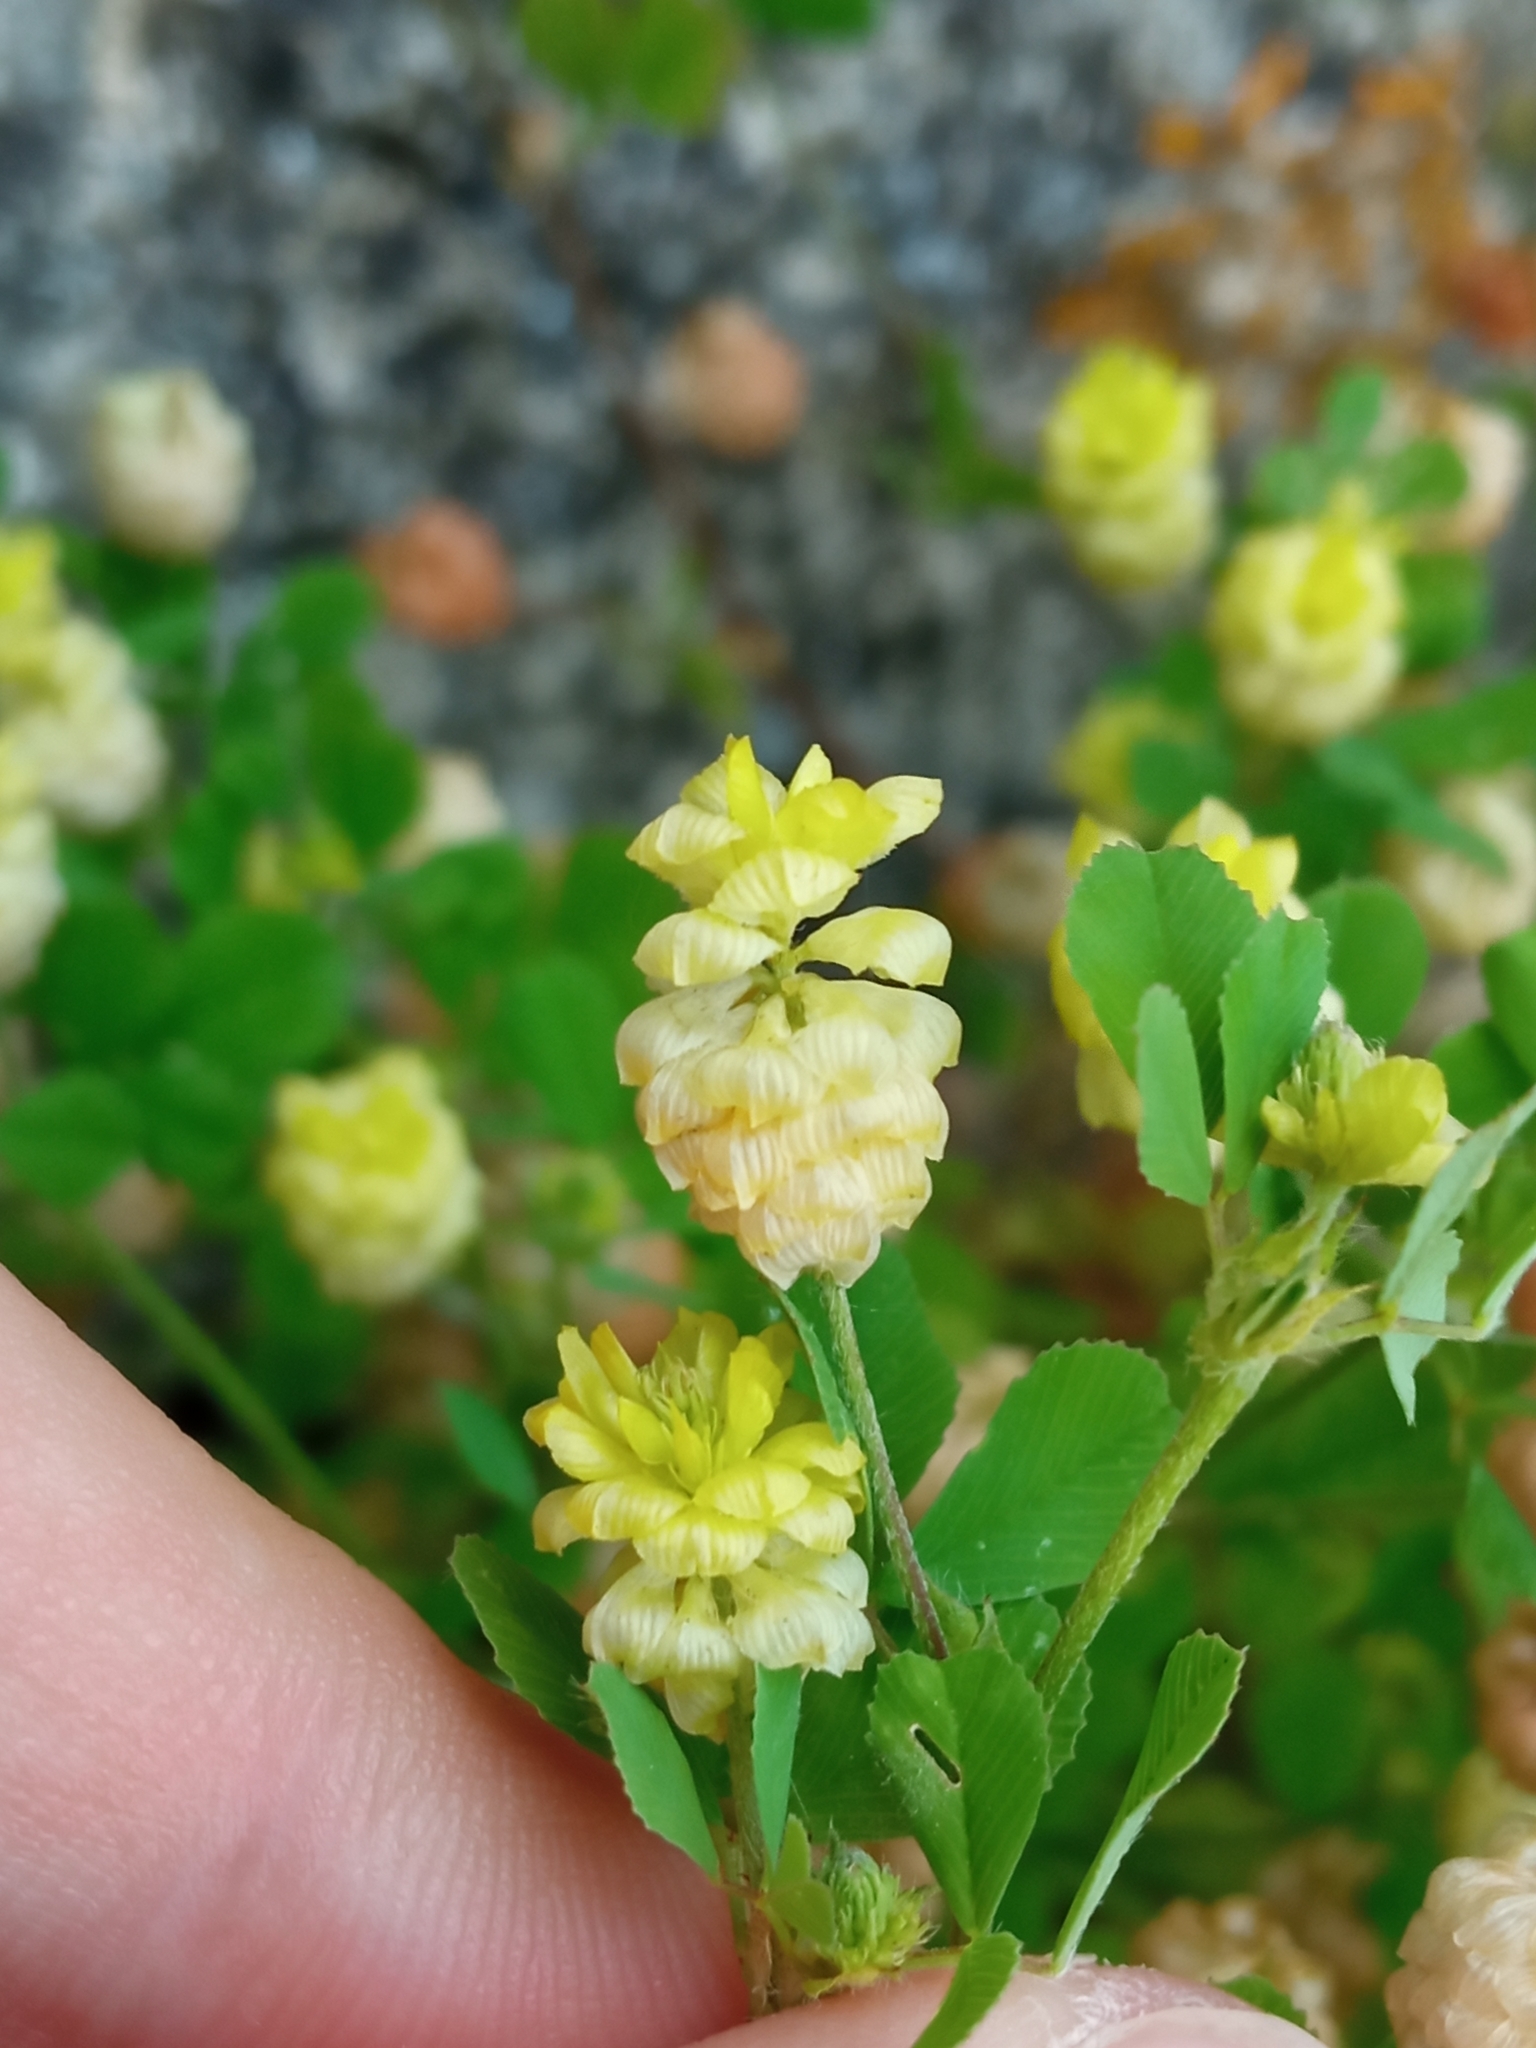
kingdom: Plantae
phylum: Tracheophyta
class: Magnoliopsida
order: Fabales
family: Fabaceae
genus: Trifolium
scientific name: Trifolium campestre
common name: Field clover
